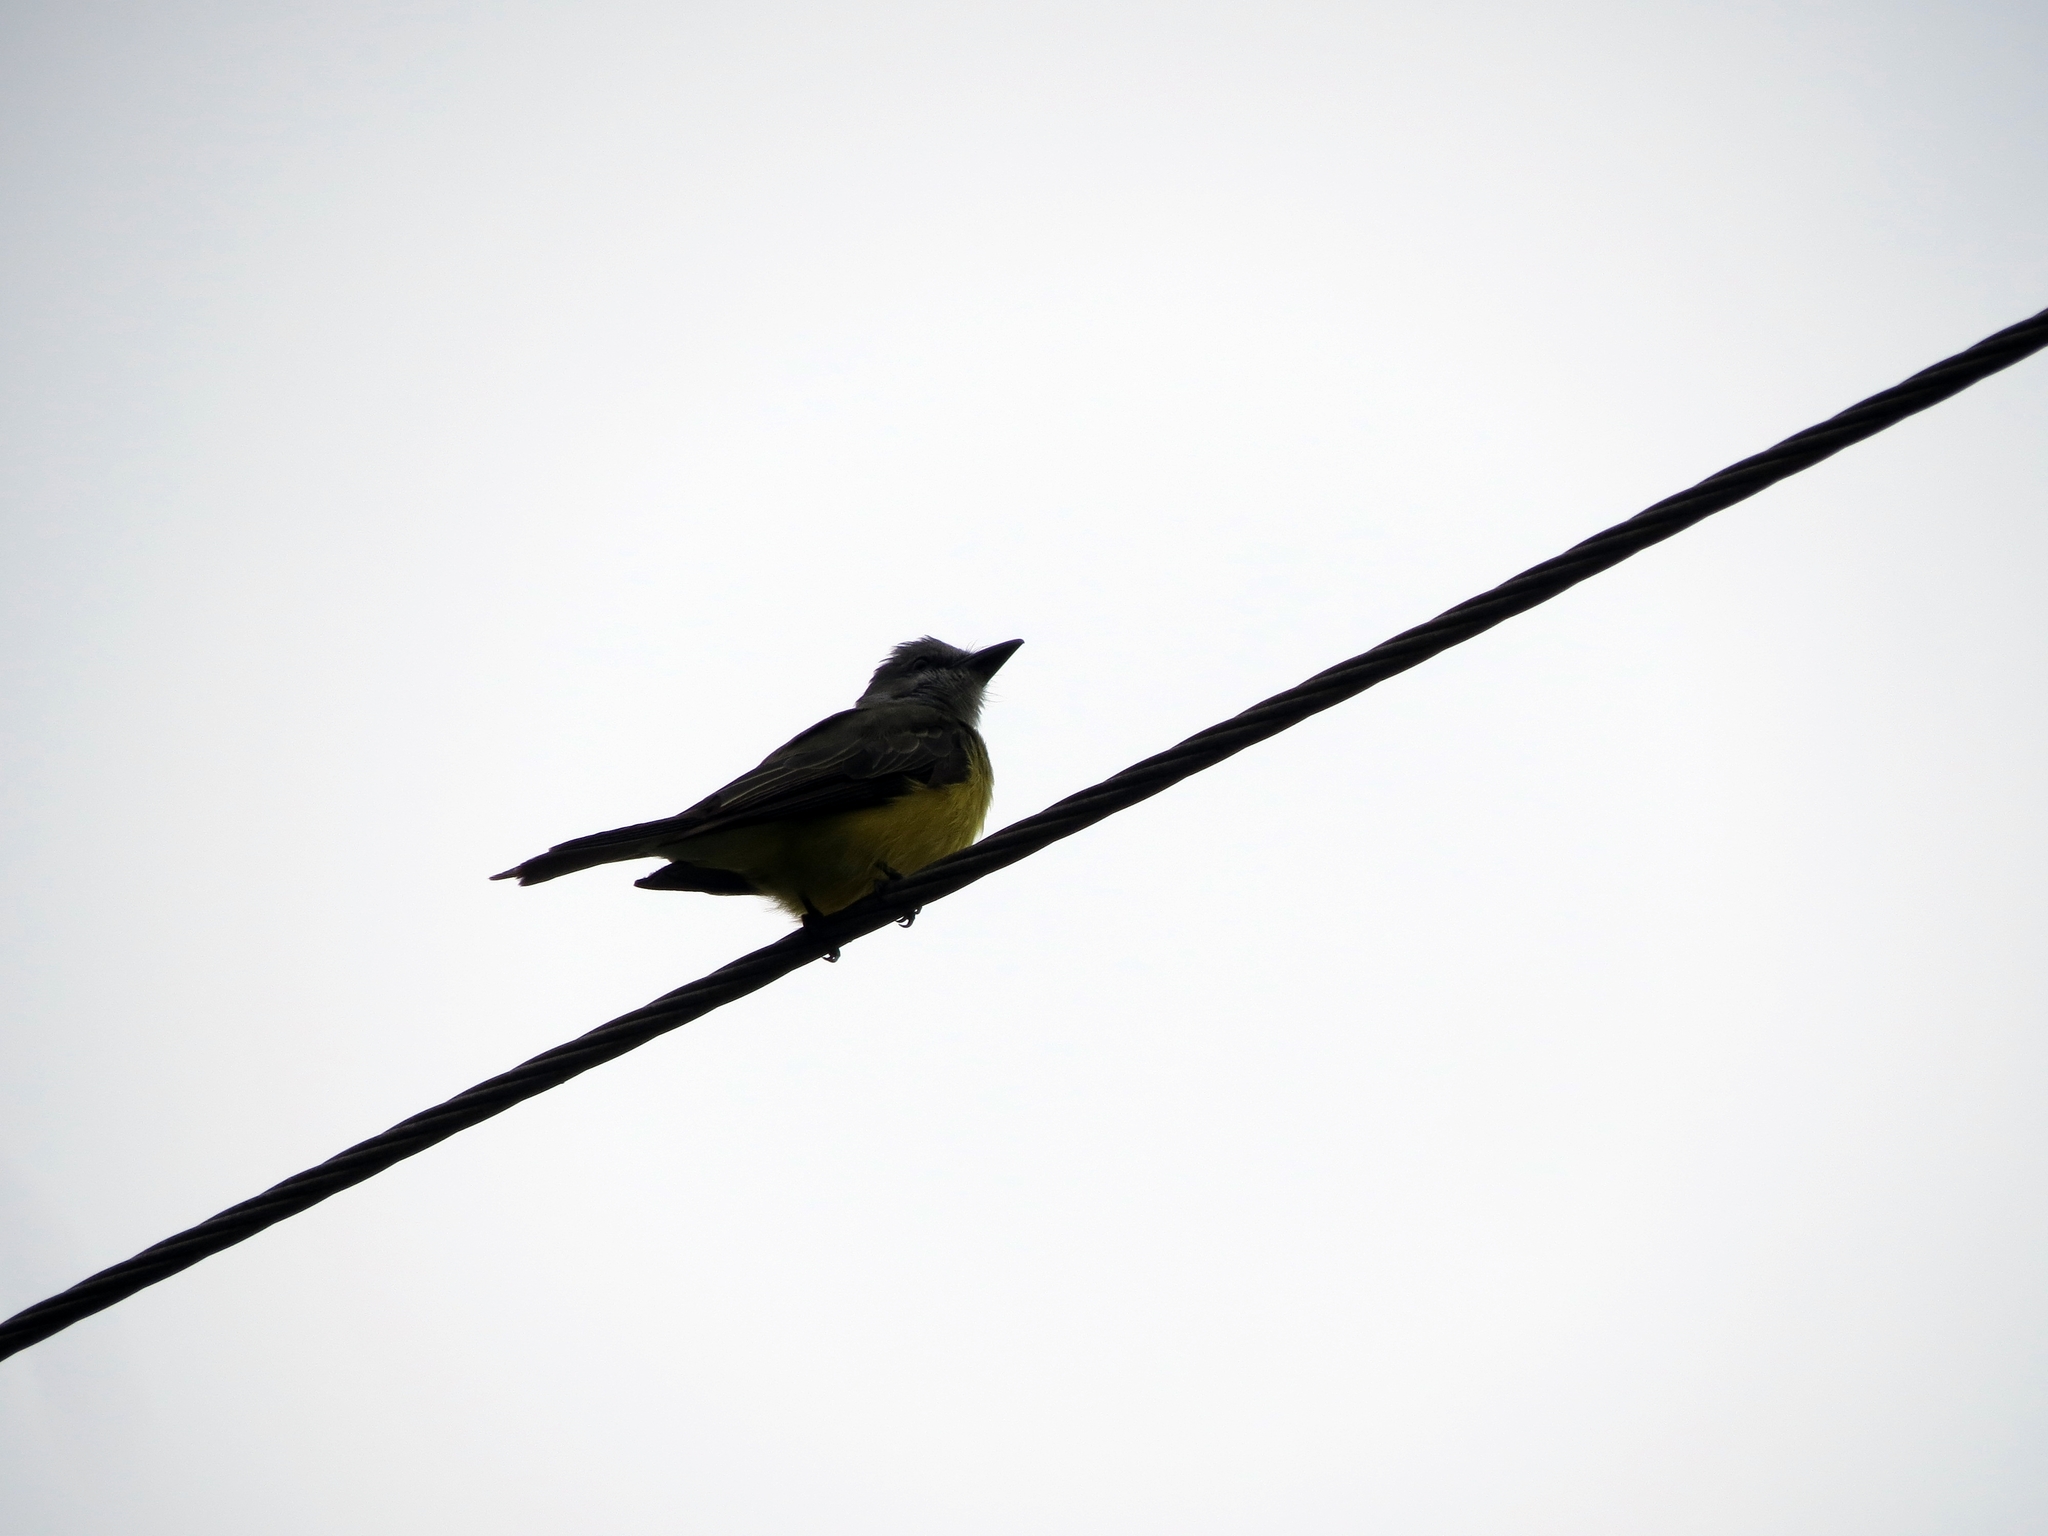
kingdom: Animalia
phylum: Chordata
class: Aves
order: Passeriformes
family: Tyrannidae
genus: Tyrannus
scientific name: Tyrannus melancholicus
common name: Tropical kingbird
